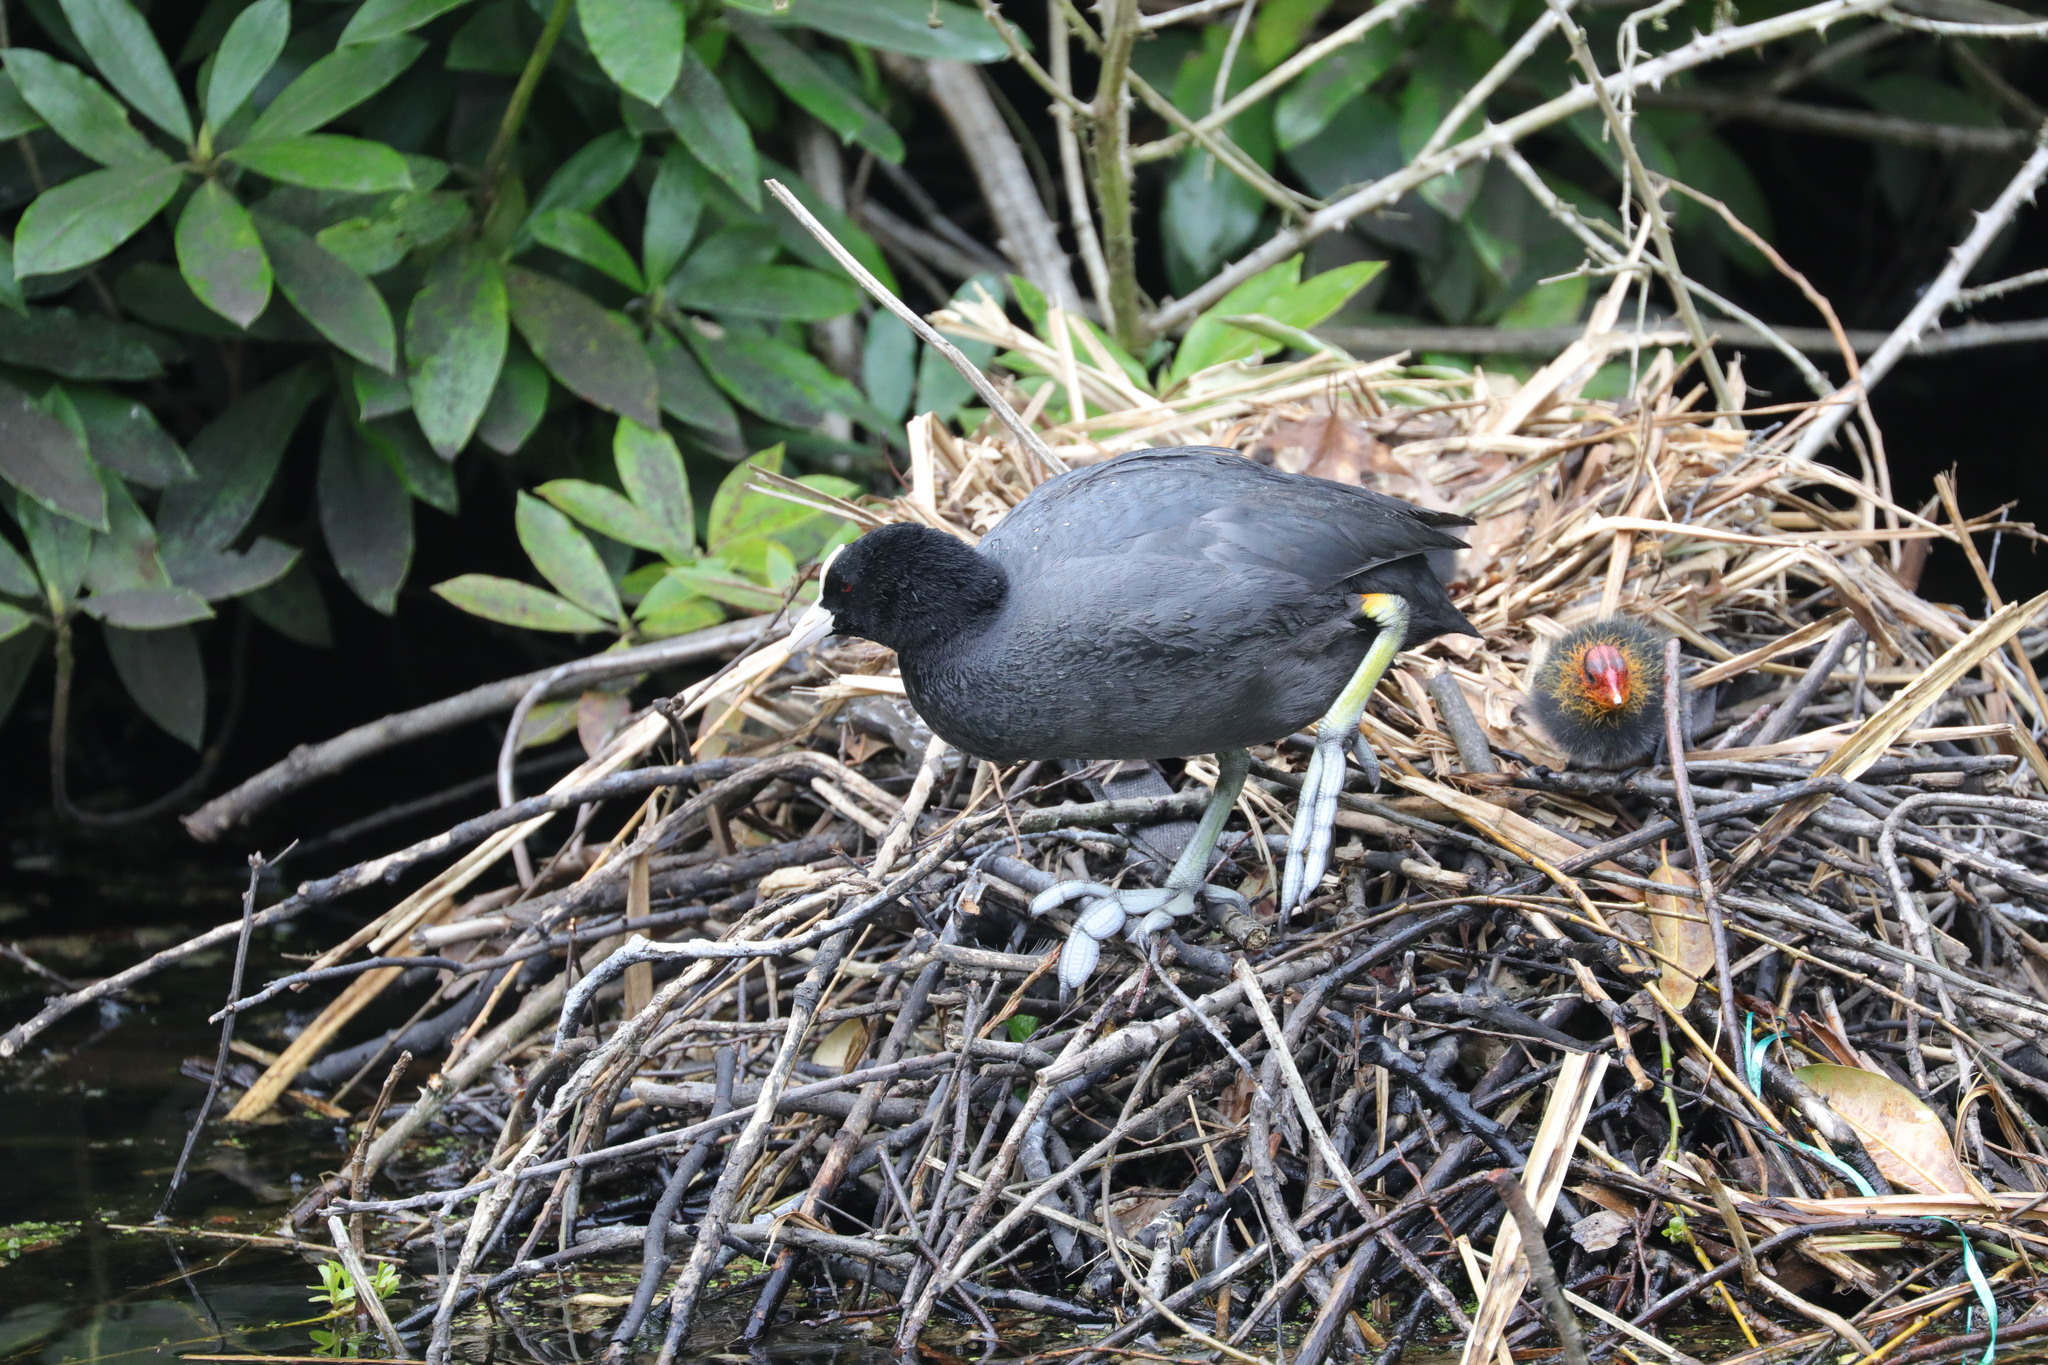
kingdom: Animalia
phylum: Chordata
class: Aves
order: Gruiformes
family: Rallidae
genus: Fulica
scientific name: Fulica atra
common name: Eurasian coot
